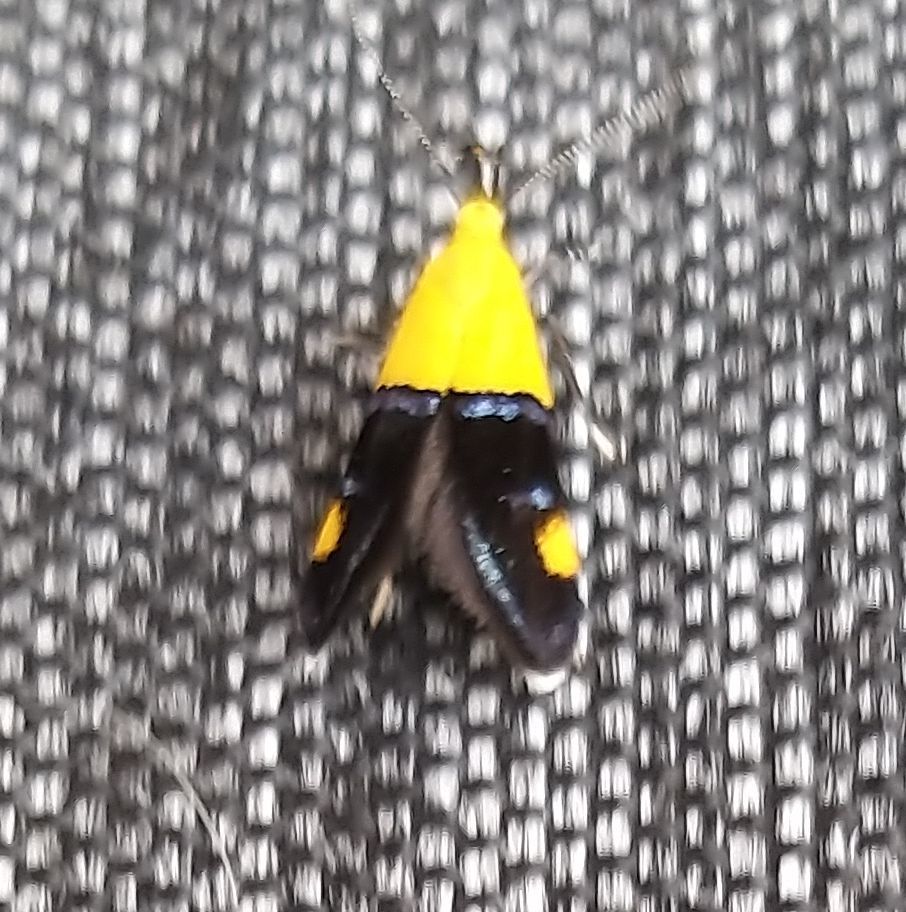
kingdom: Animalia
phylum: Arthropoda
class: Insecta
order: Lepidoptera
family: Oecophoridae
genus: Oecophora
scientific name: Oecophora bractella
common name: Gold-base tubic
